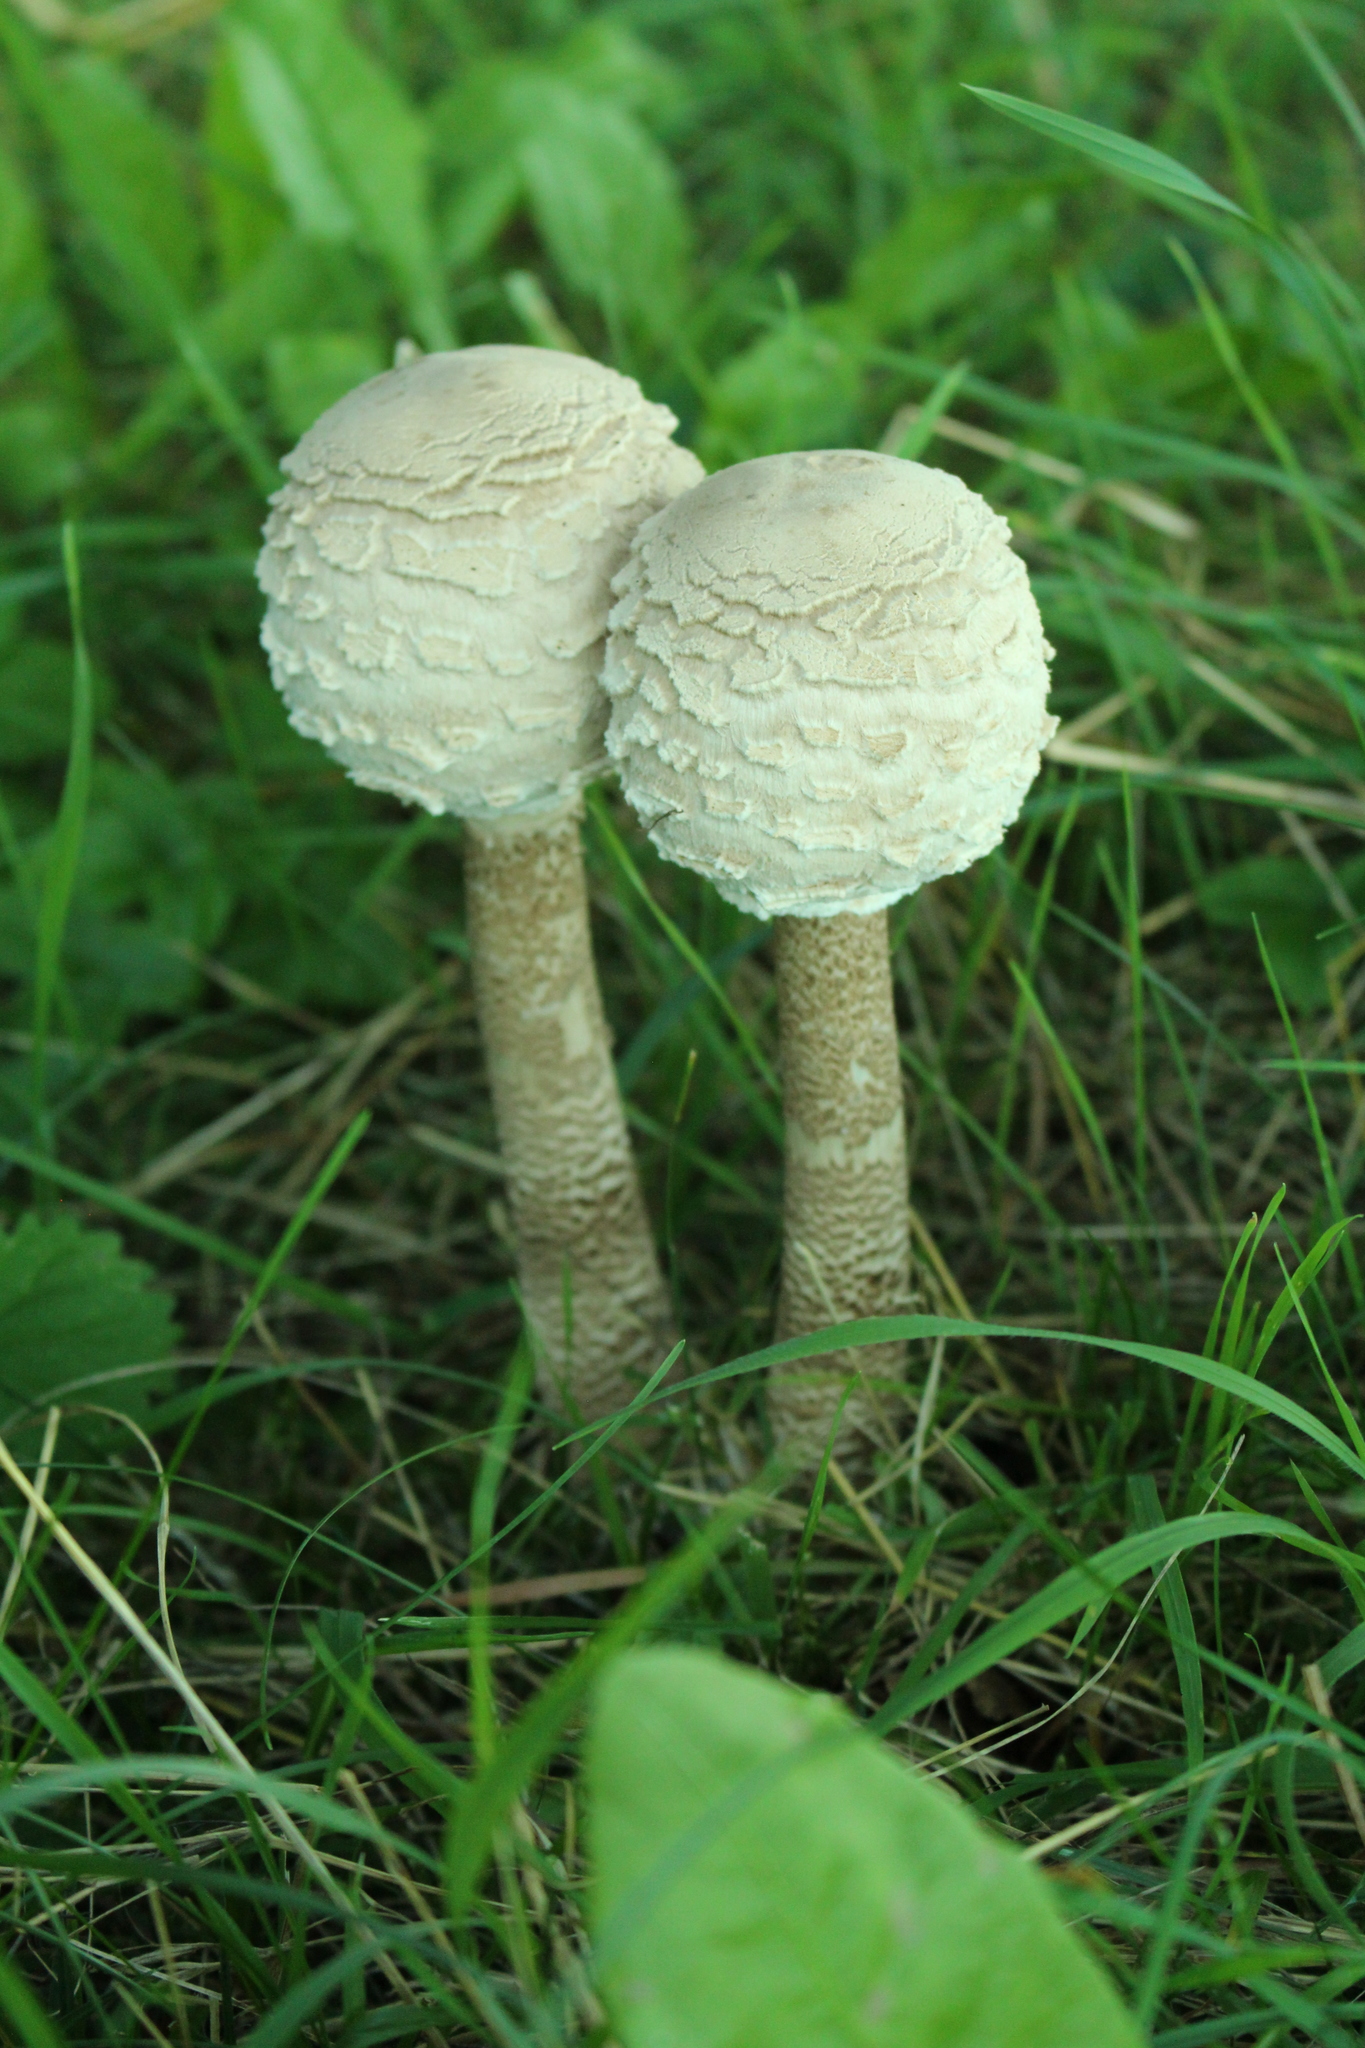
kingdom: Fungi
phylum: Basidiomycota
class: Agaricomycetes
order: Agaricales
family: Agaricaceae
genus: Macrolepiota
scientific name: Macrolepiota procera
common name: Parasol
